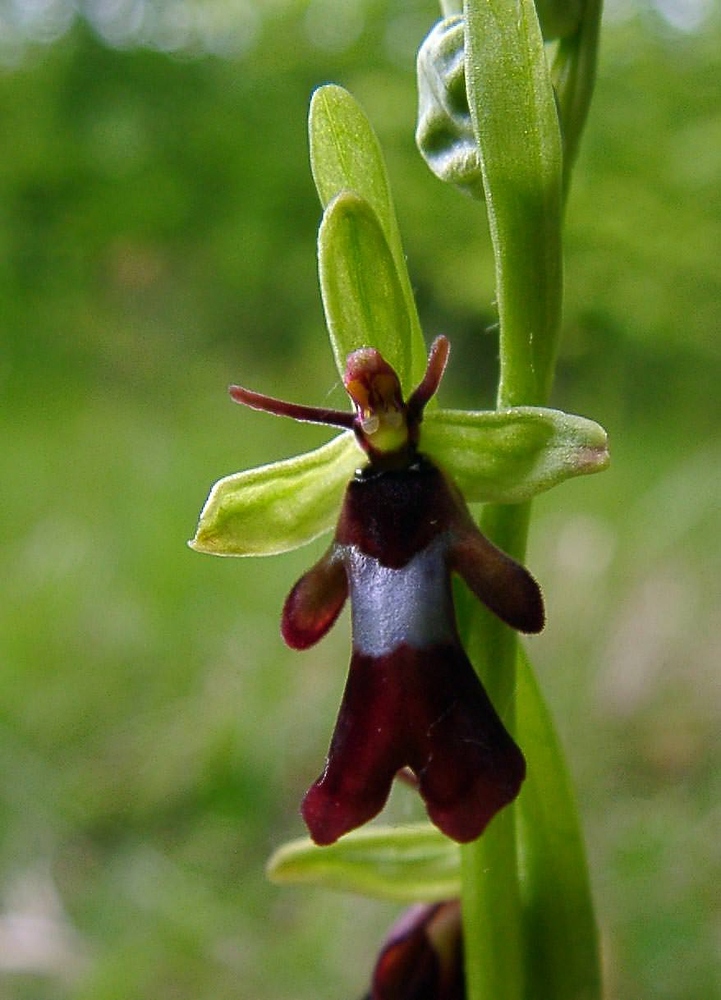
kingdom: Plantae
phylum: Tracheophyta
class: Liliopsida
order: Asparagales
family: Orchidaceae
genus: Ophrys
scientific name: Ophrys insectifera
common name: Fly orchid
